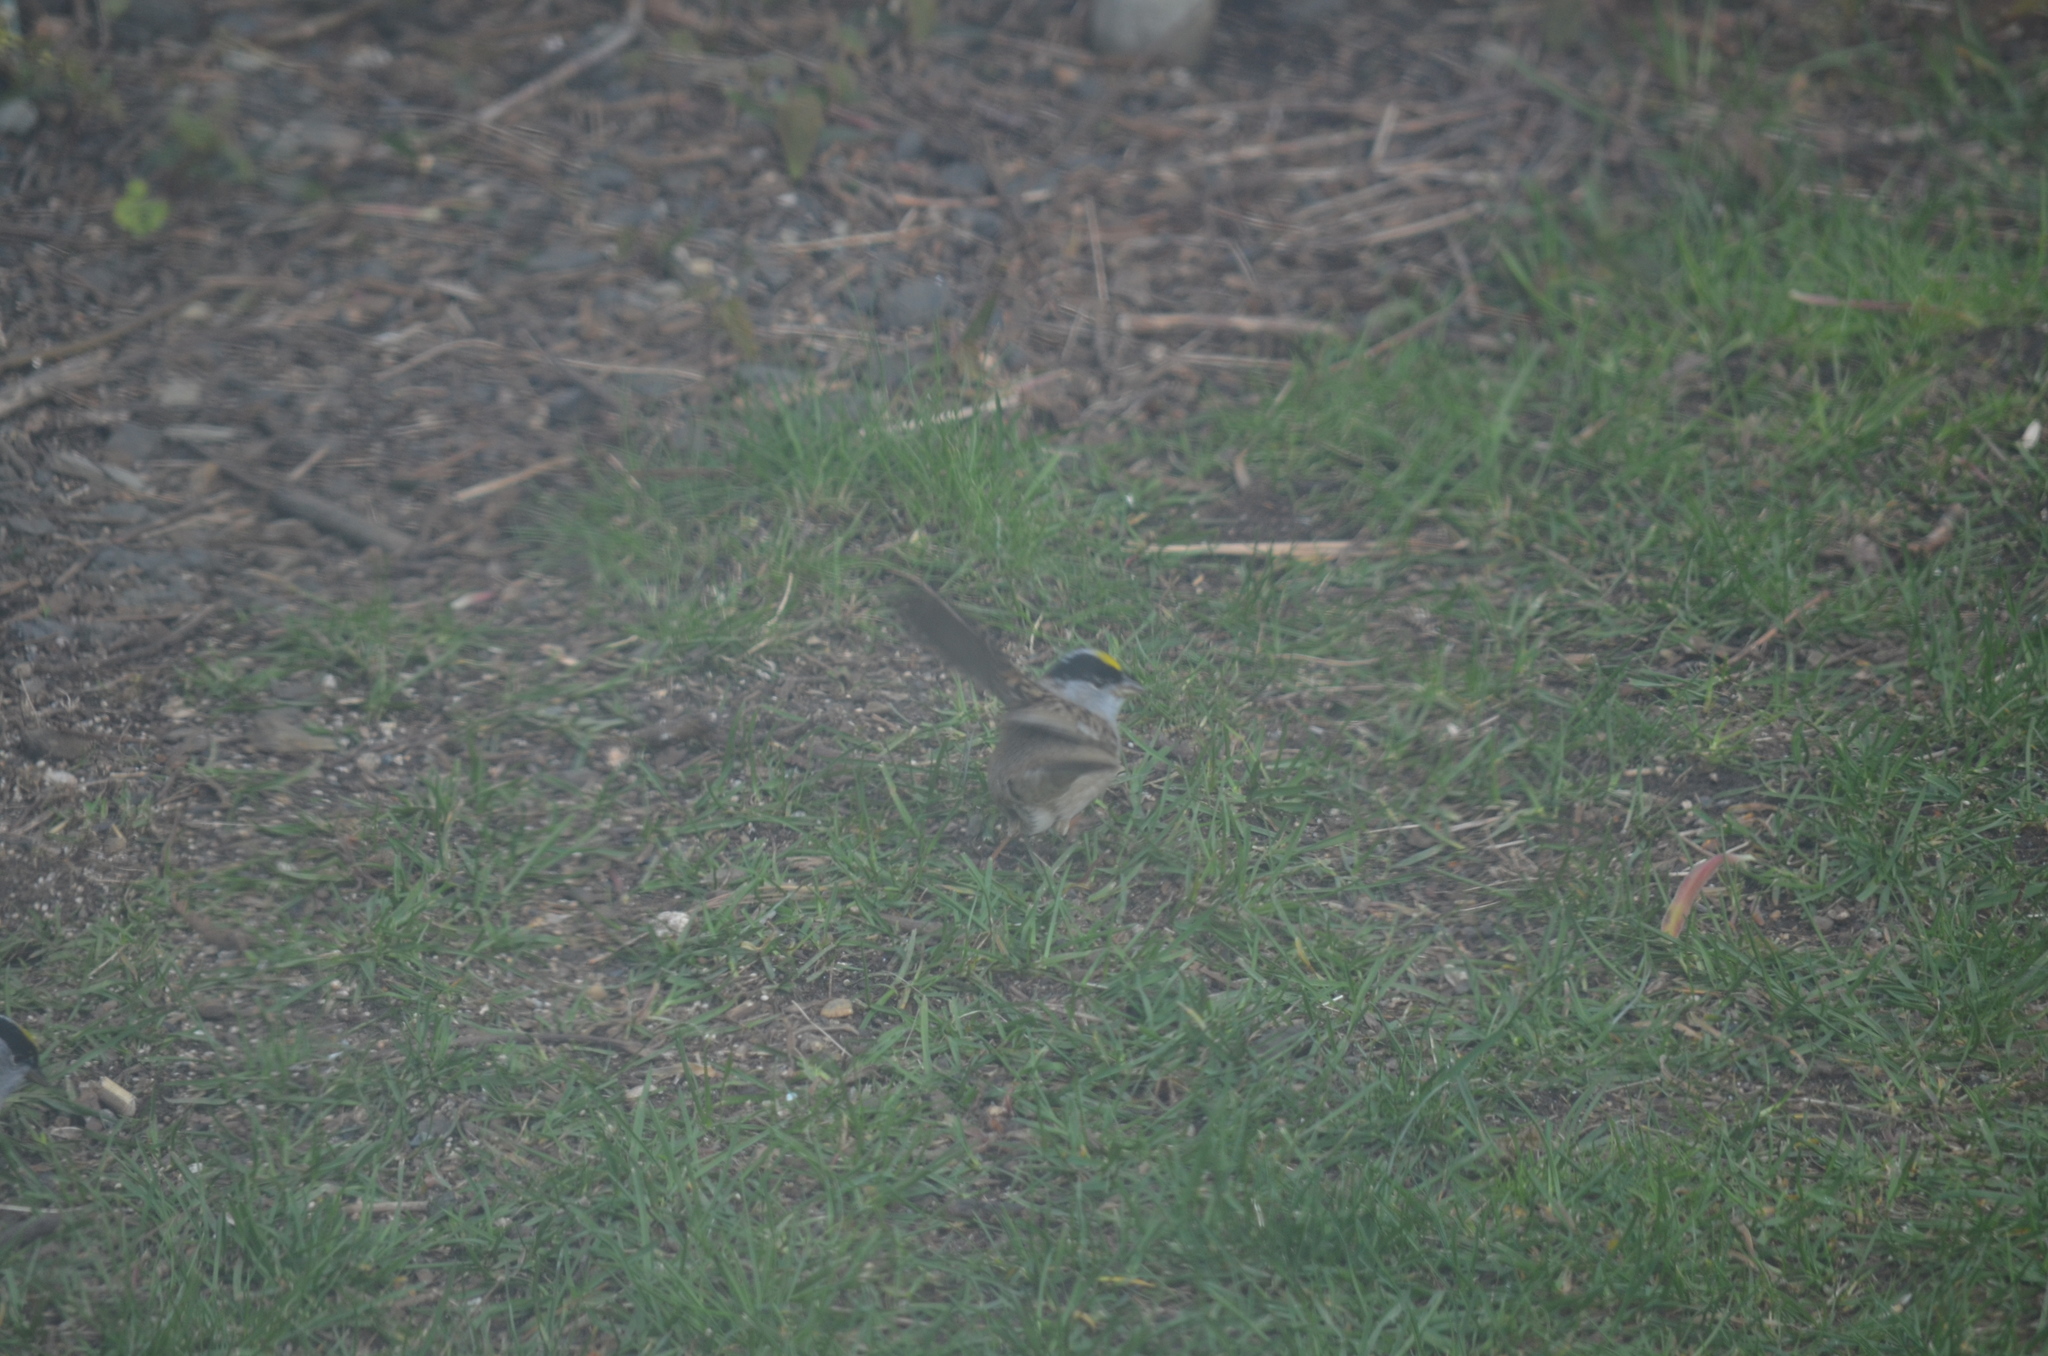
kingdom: Animalia
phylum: Chordata
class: Aves
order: Passeriformes
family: Passerellidae
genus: Zonotrichia
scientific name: Zonotrichia atricapilla
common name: Golden-crowned sparrow
